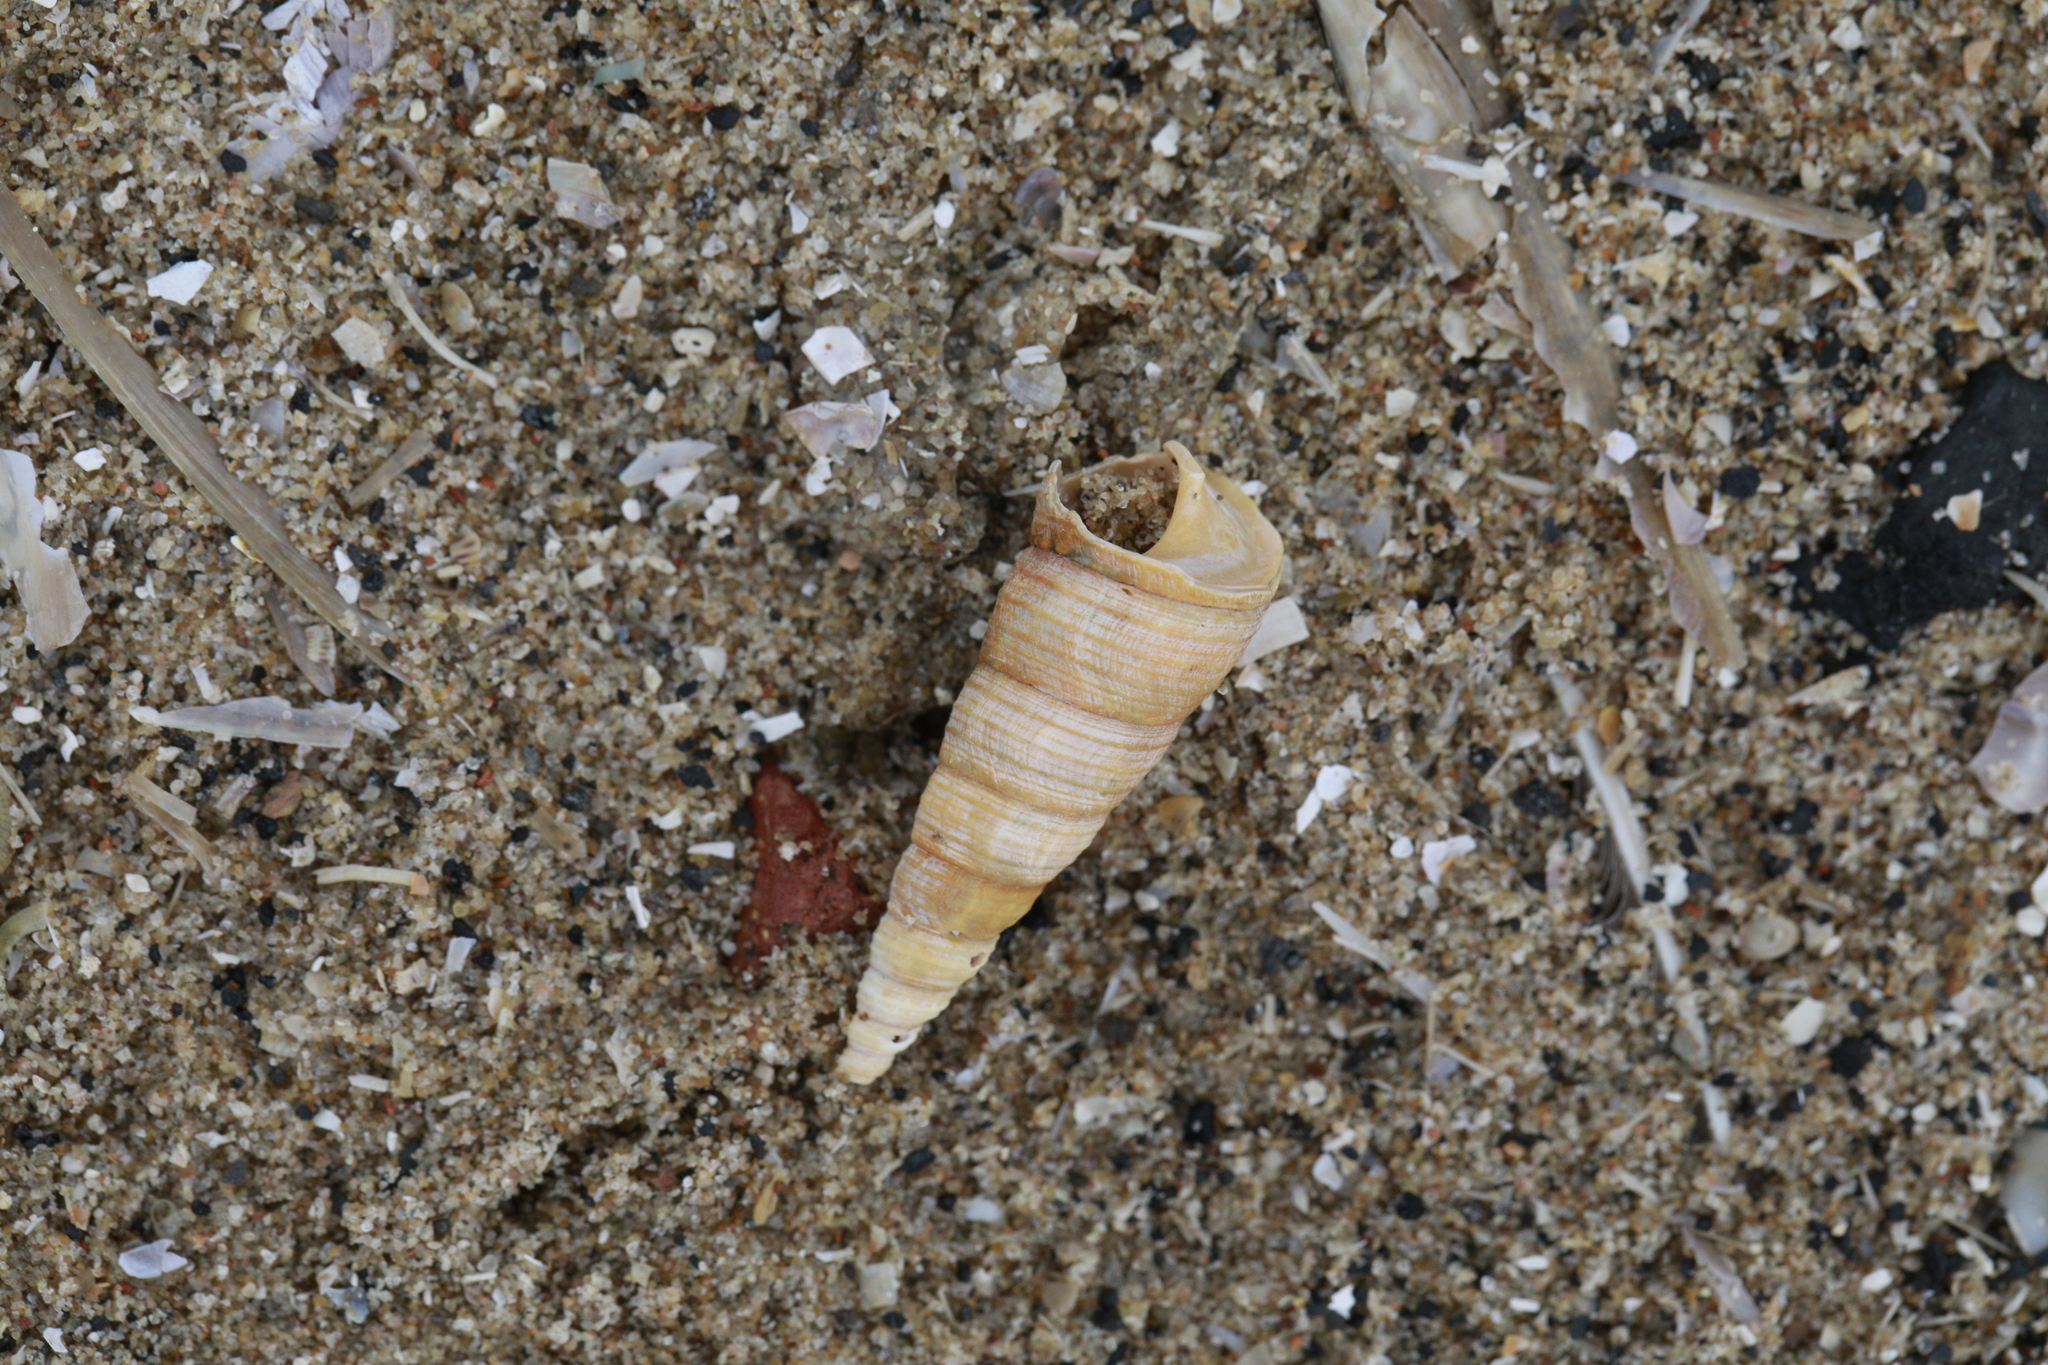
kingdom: Animalia
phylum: Mollusca
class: Gastropoda
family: Turritellidae
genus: Turritellinella
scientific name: Turritellinella tricarinata
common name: Auger shell
